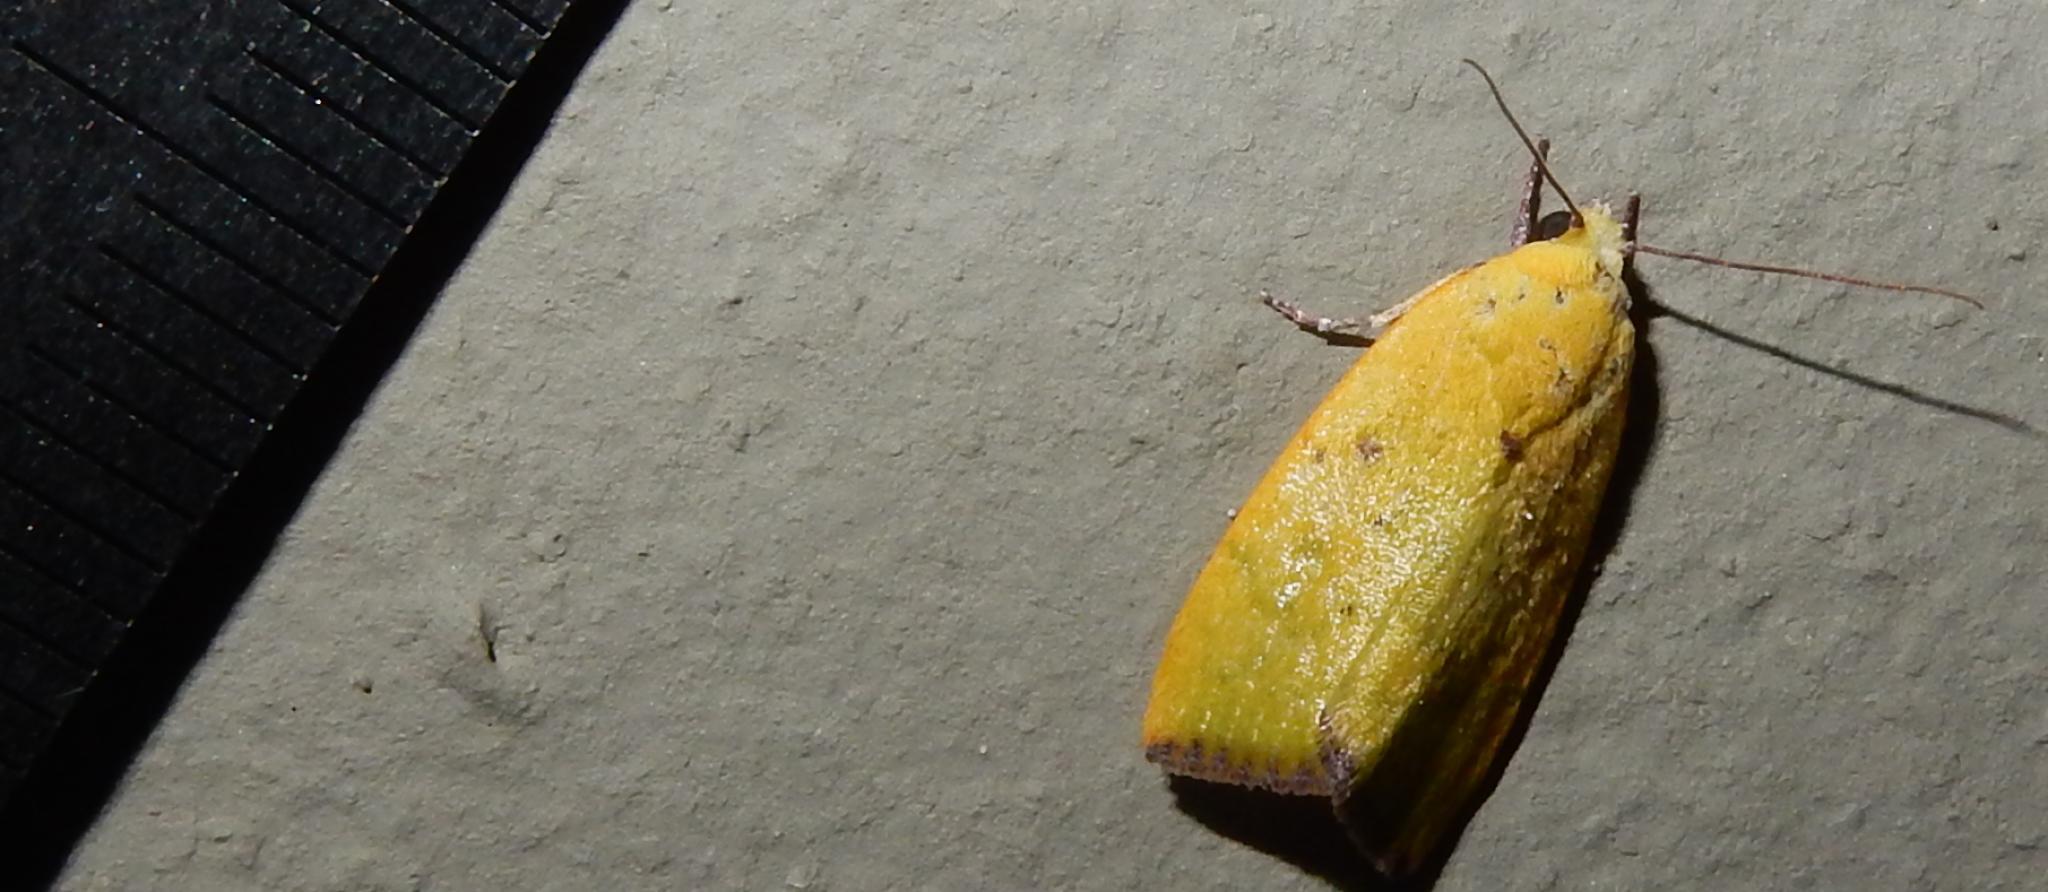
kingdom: Animalia
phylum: Arthropoda
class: Insecta
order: Lepidoptera
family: Nolidae
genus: Earias
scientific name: Earias biplaga
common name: Spiny bollworm
